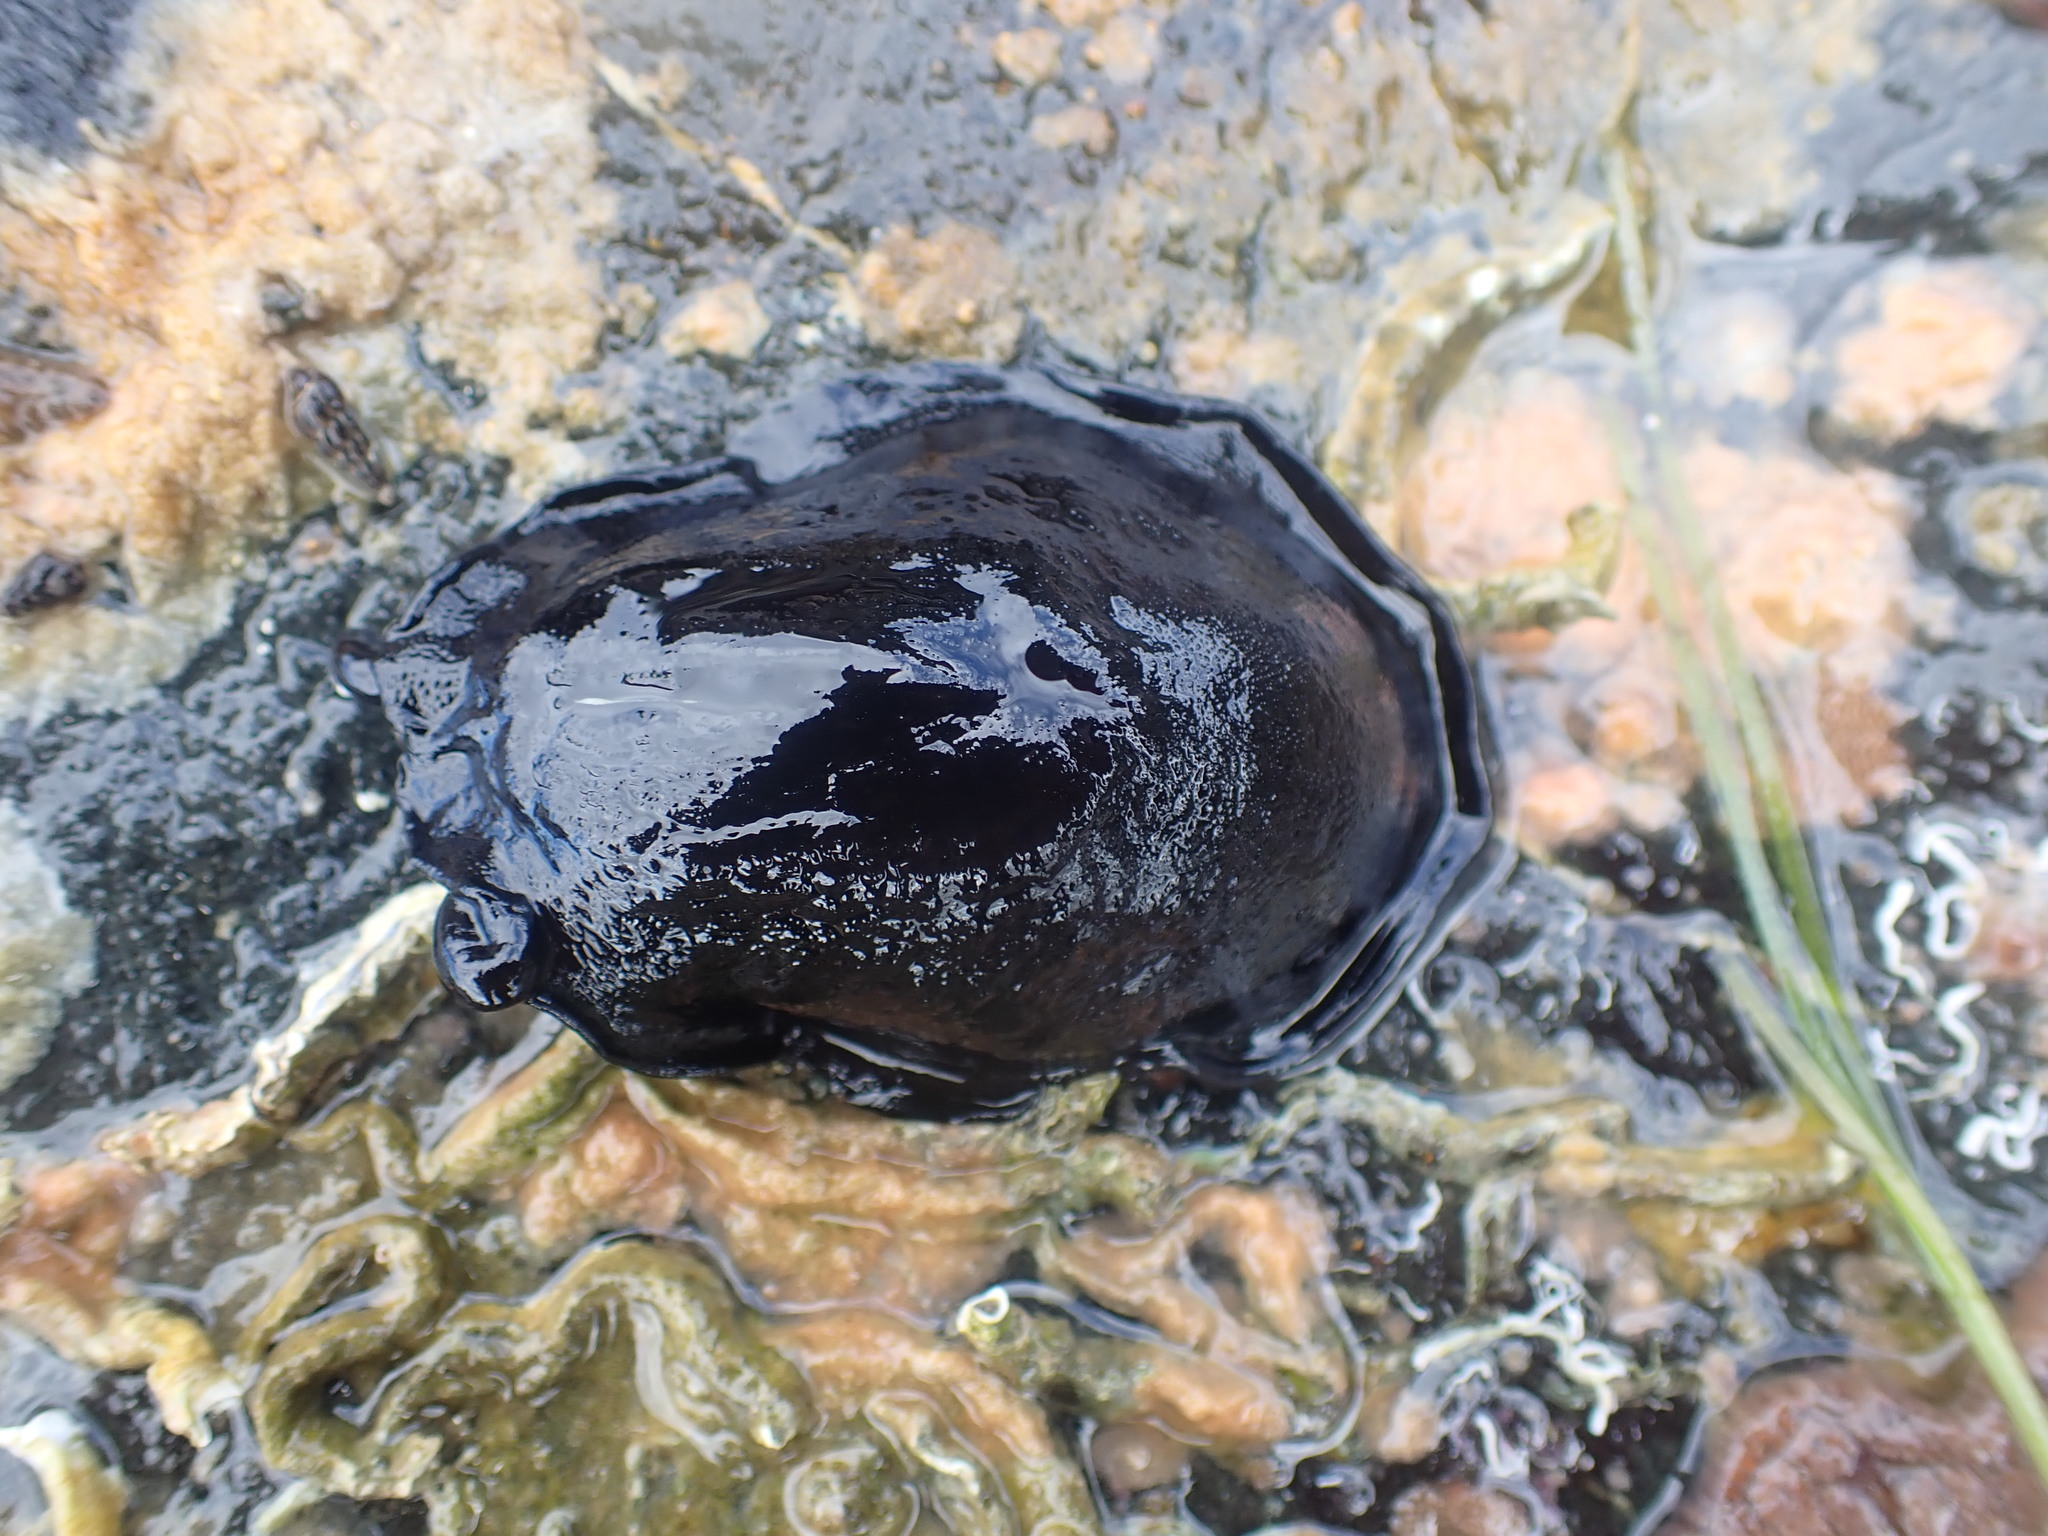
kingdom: Animalia
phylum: Mollusca
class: Gastropoda
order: Lepetellida
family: Fissurellidae
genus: Scutus
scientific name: Scutus breviculus
